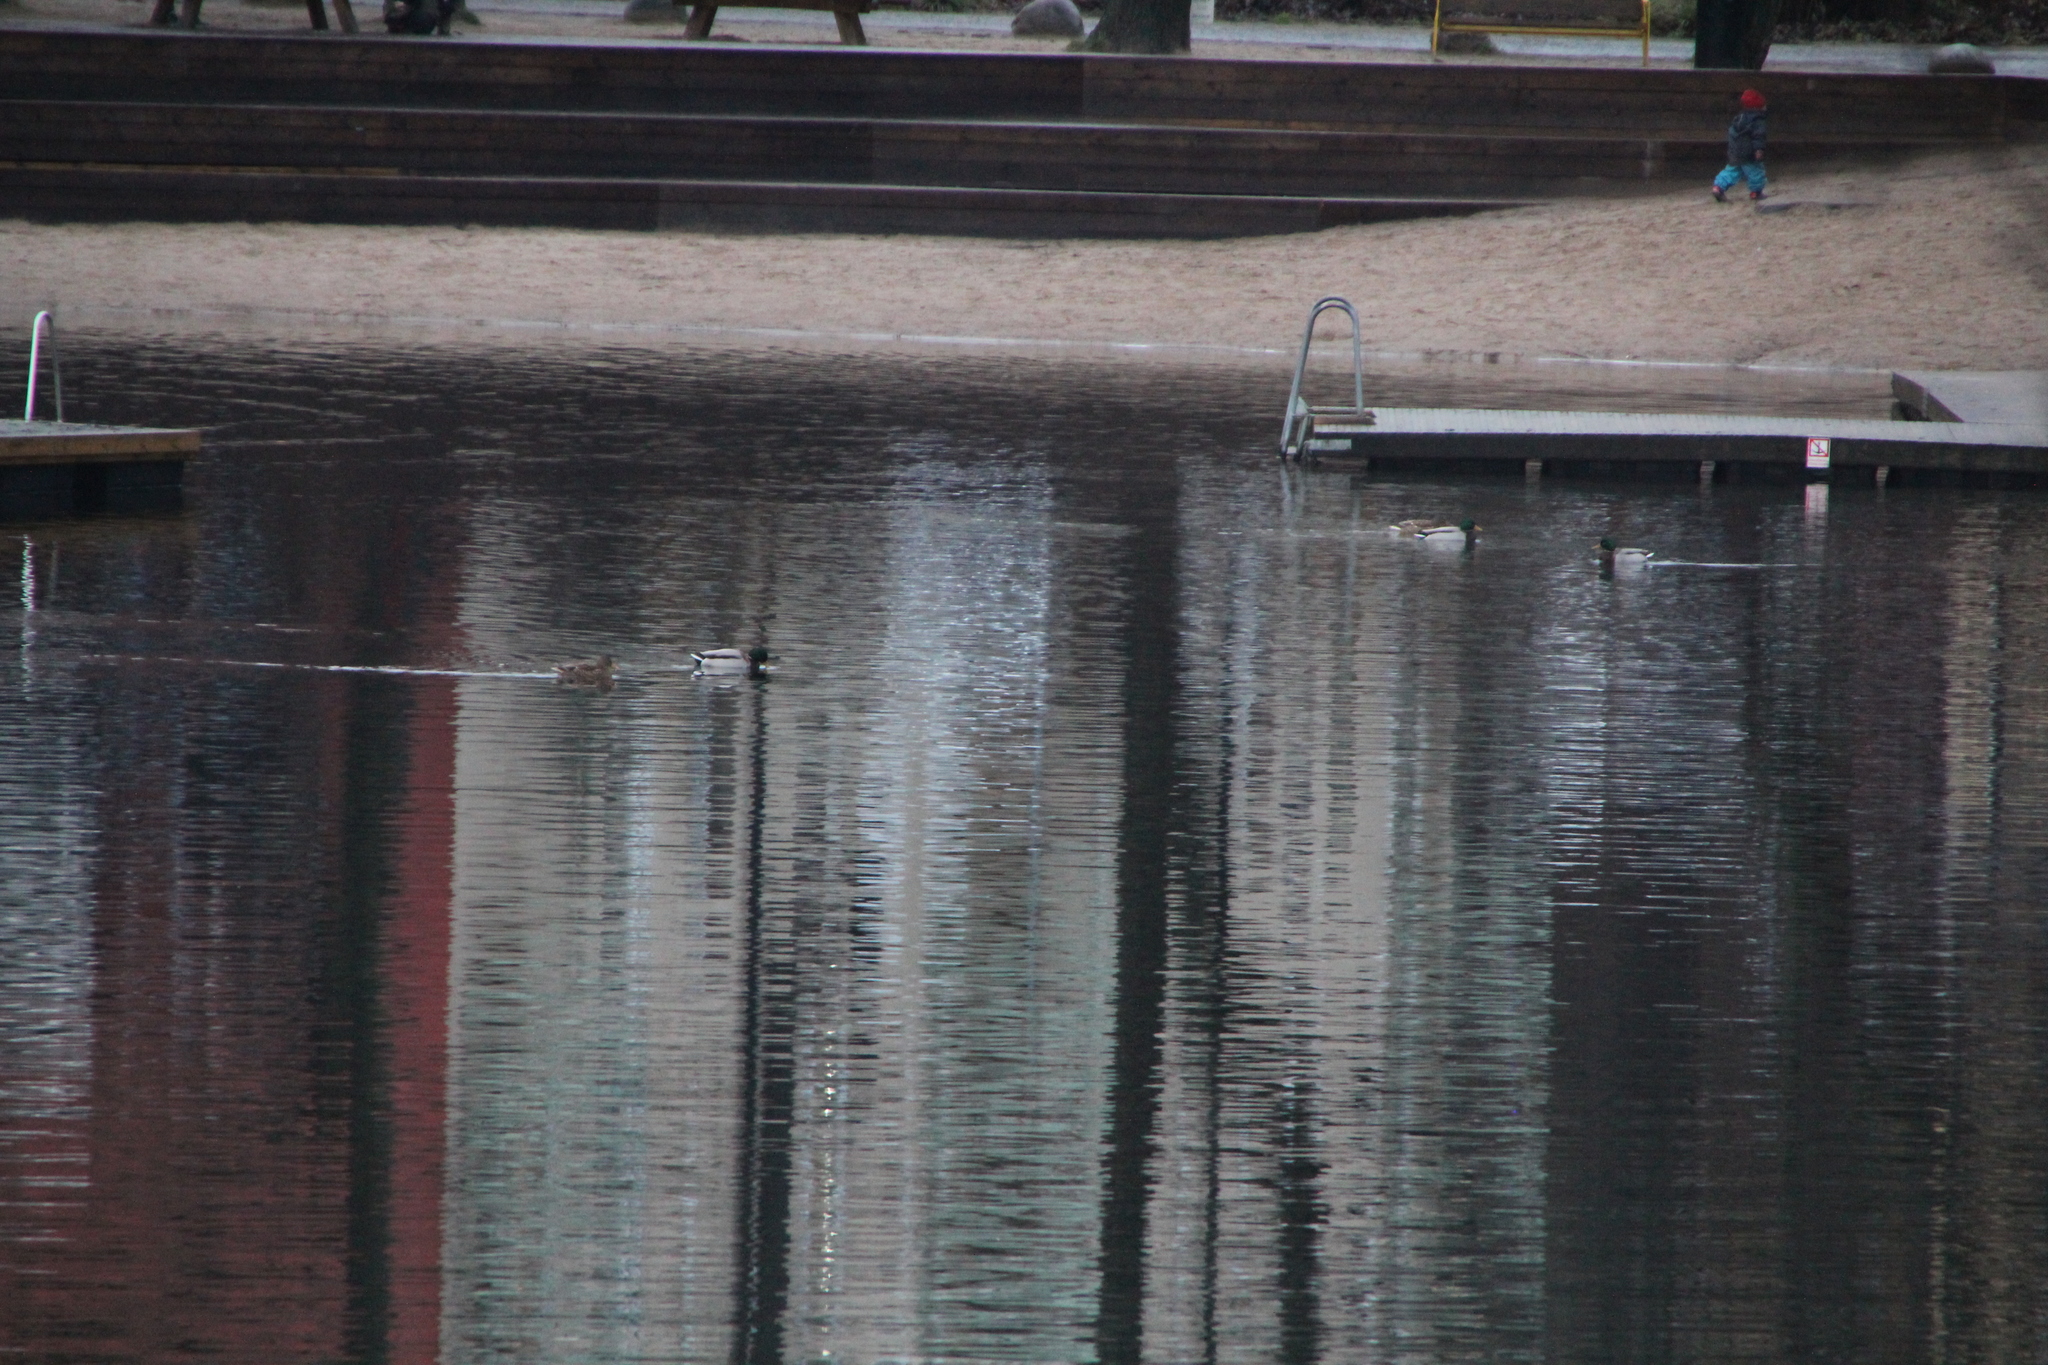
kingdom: Animalia
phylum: Chordata
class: Aves
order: Anseriformes
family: Anatidae
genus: Anas
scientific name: Anas platyrhynchos
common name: Mallard
